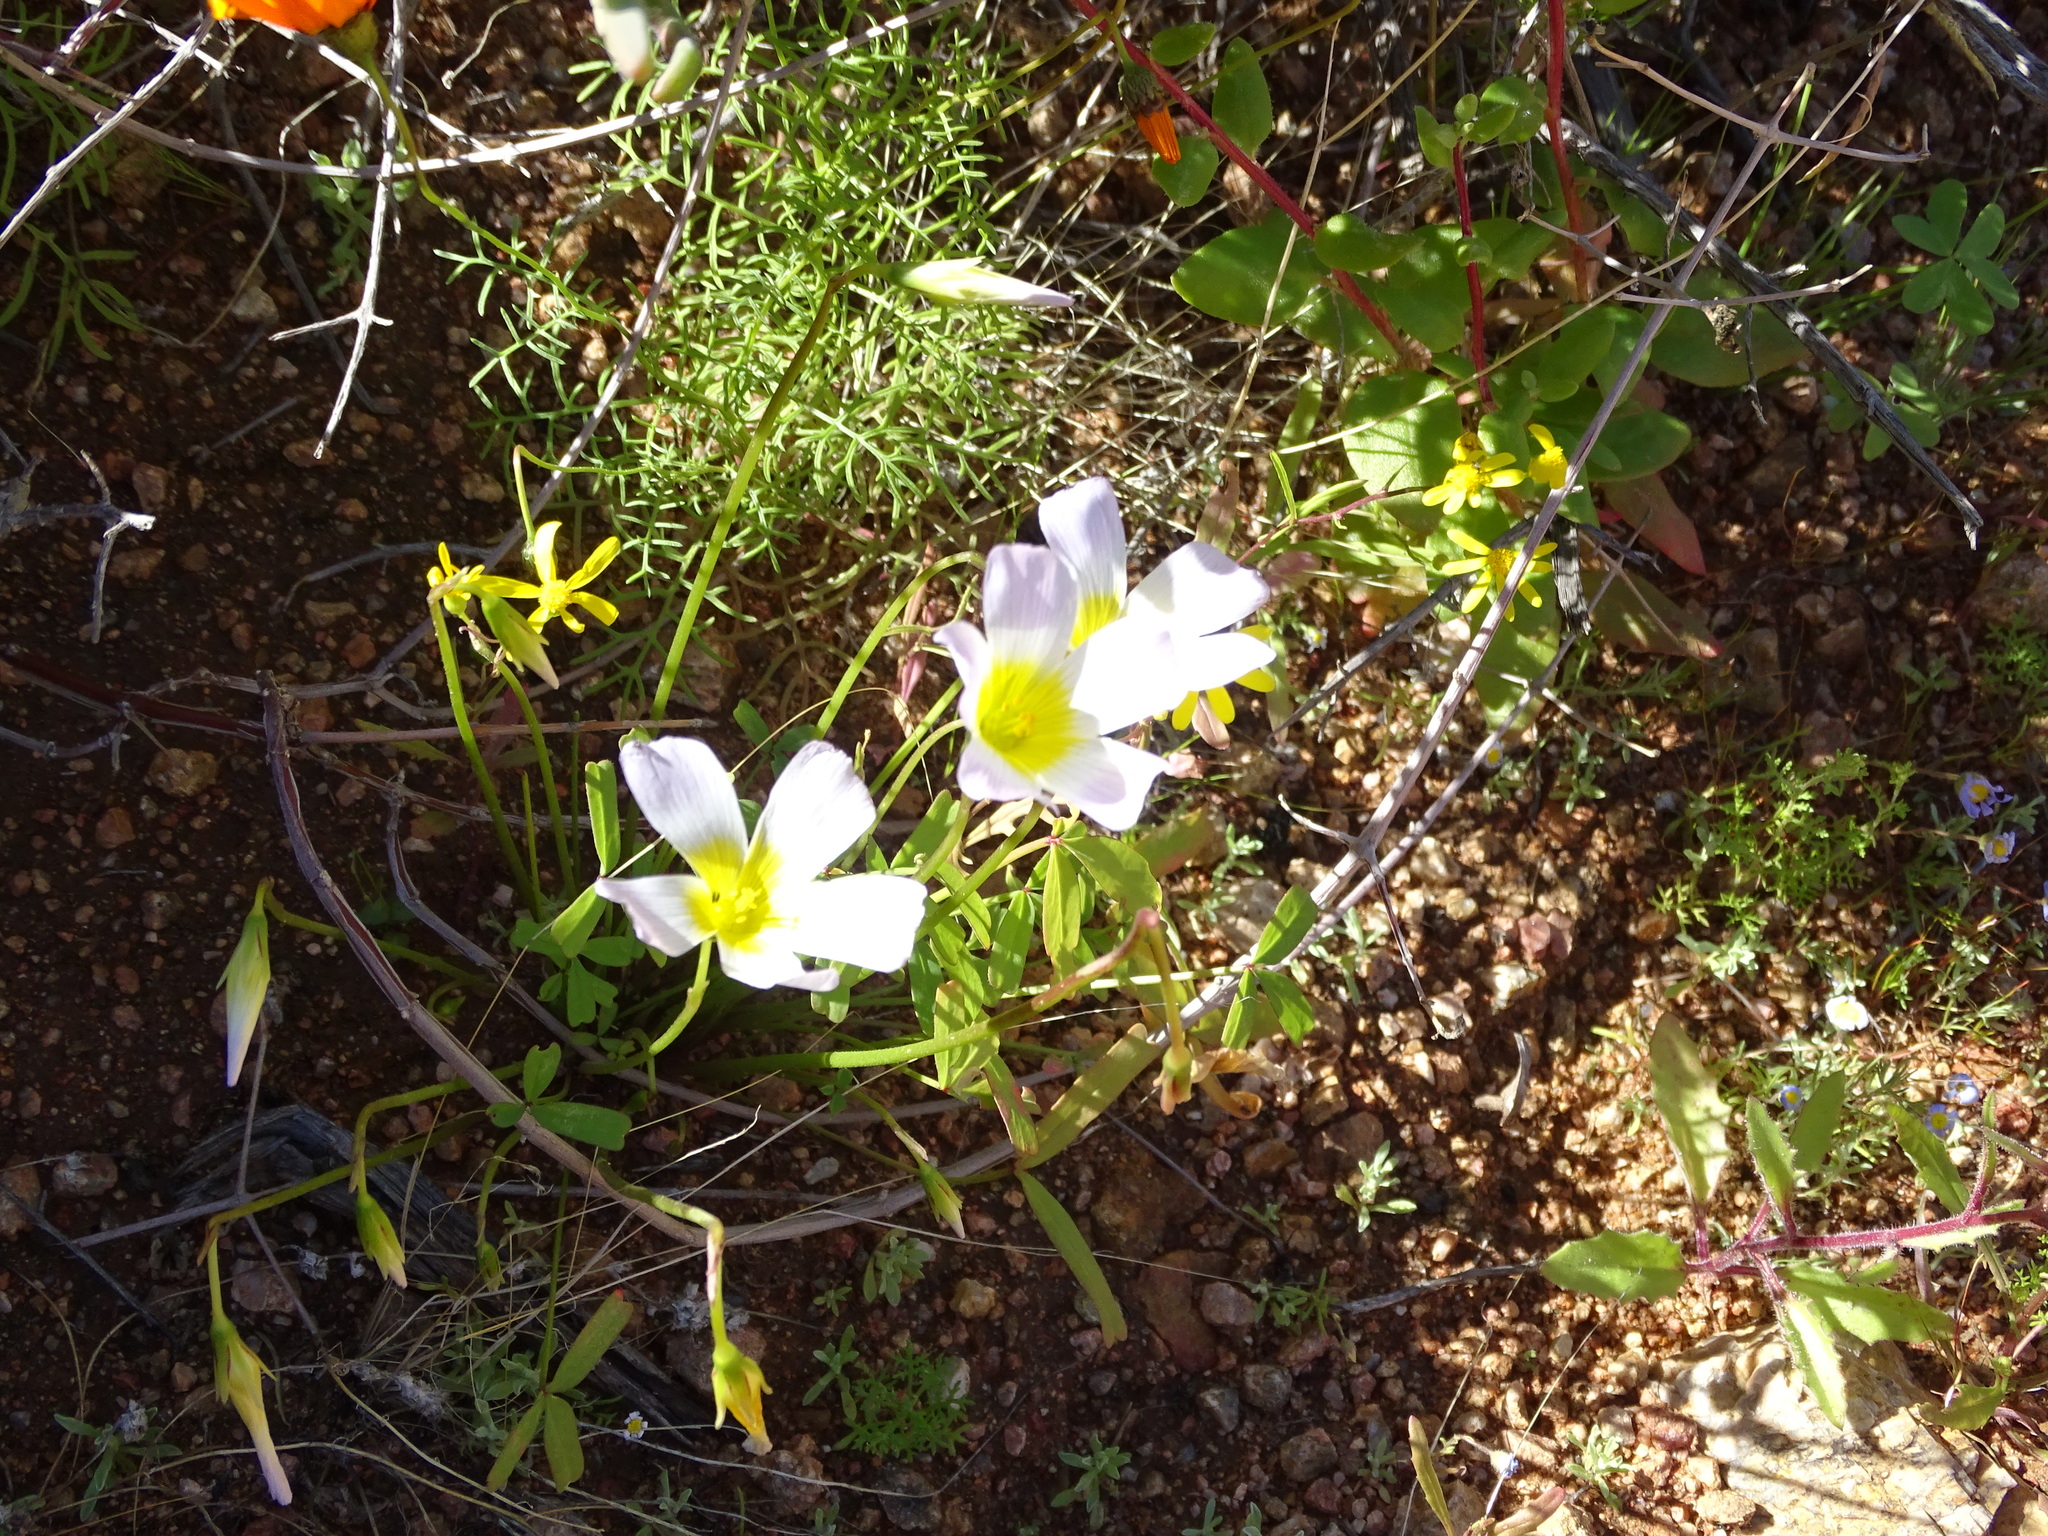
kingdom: Plantae
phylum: Tracheophyta
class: Magnoliopsida
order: Oxalidales
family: Oxalidaceae
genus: Oxalis
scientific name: Oxalis obtusa
